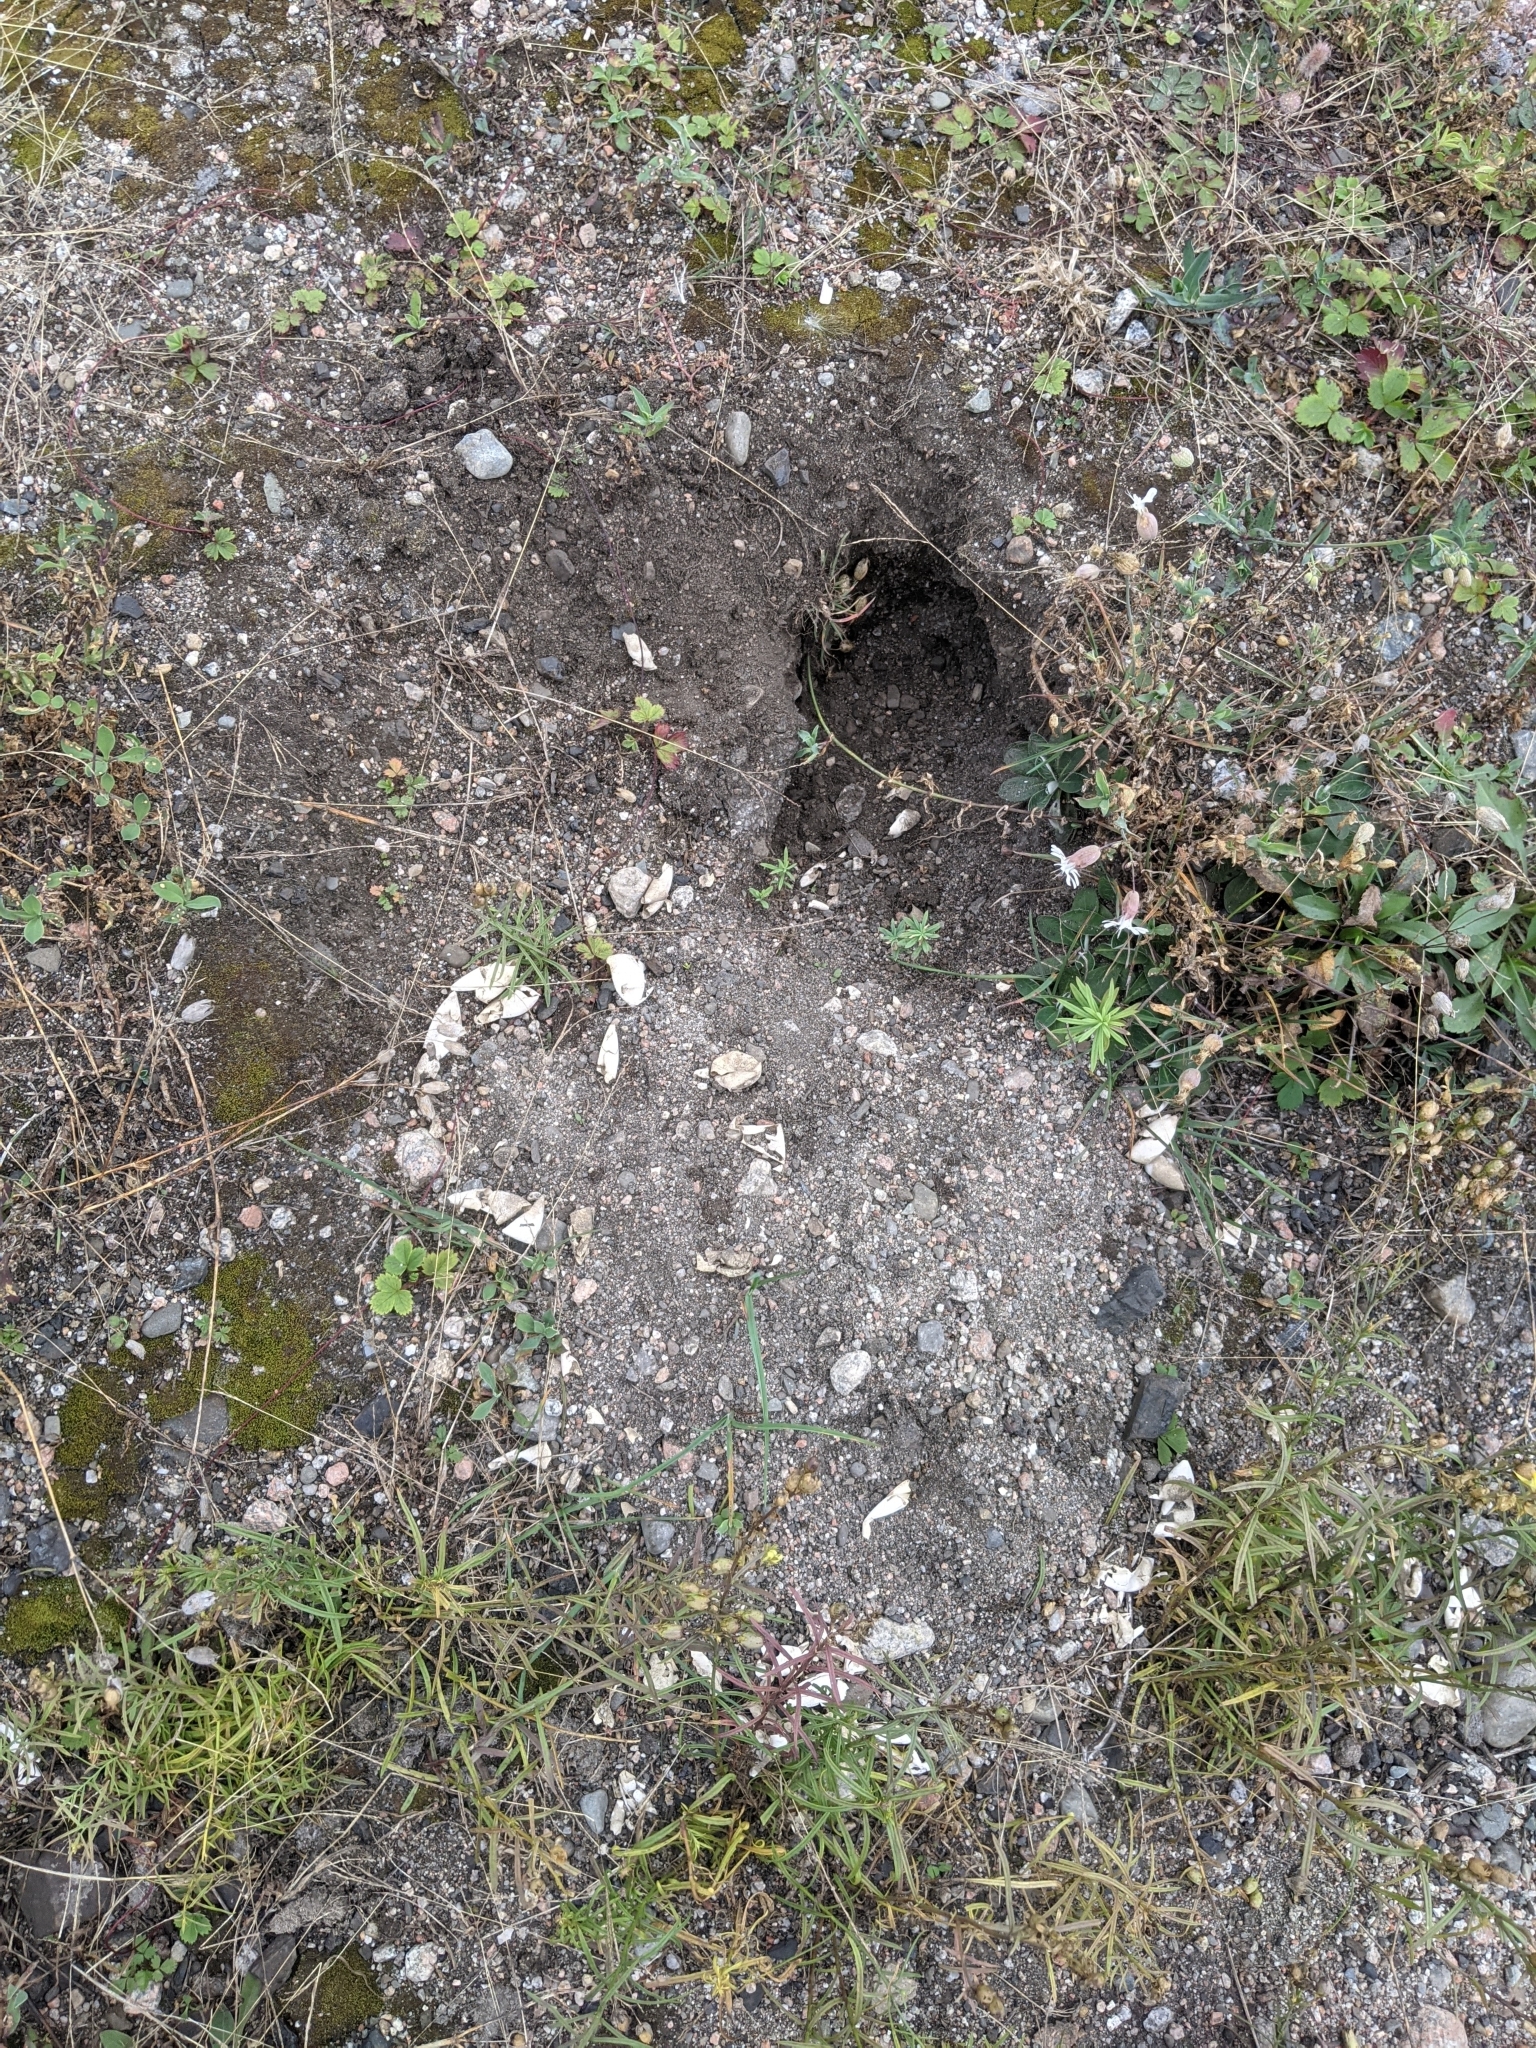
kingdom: Animalia
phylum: Chordata
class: Testudines
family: Chelydridae
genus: Chelydra
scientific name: Chelydra serpentina
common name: Common snapping turtle
